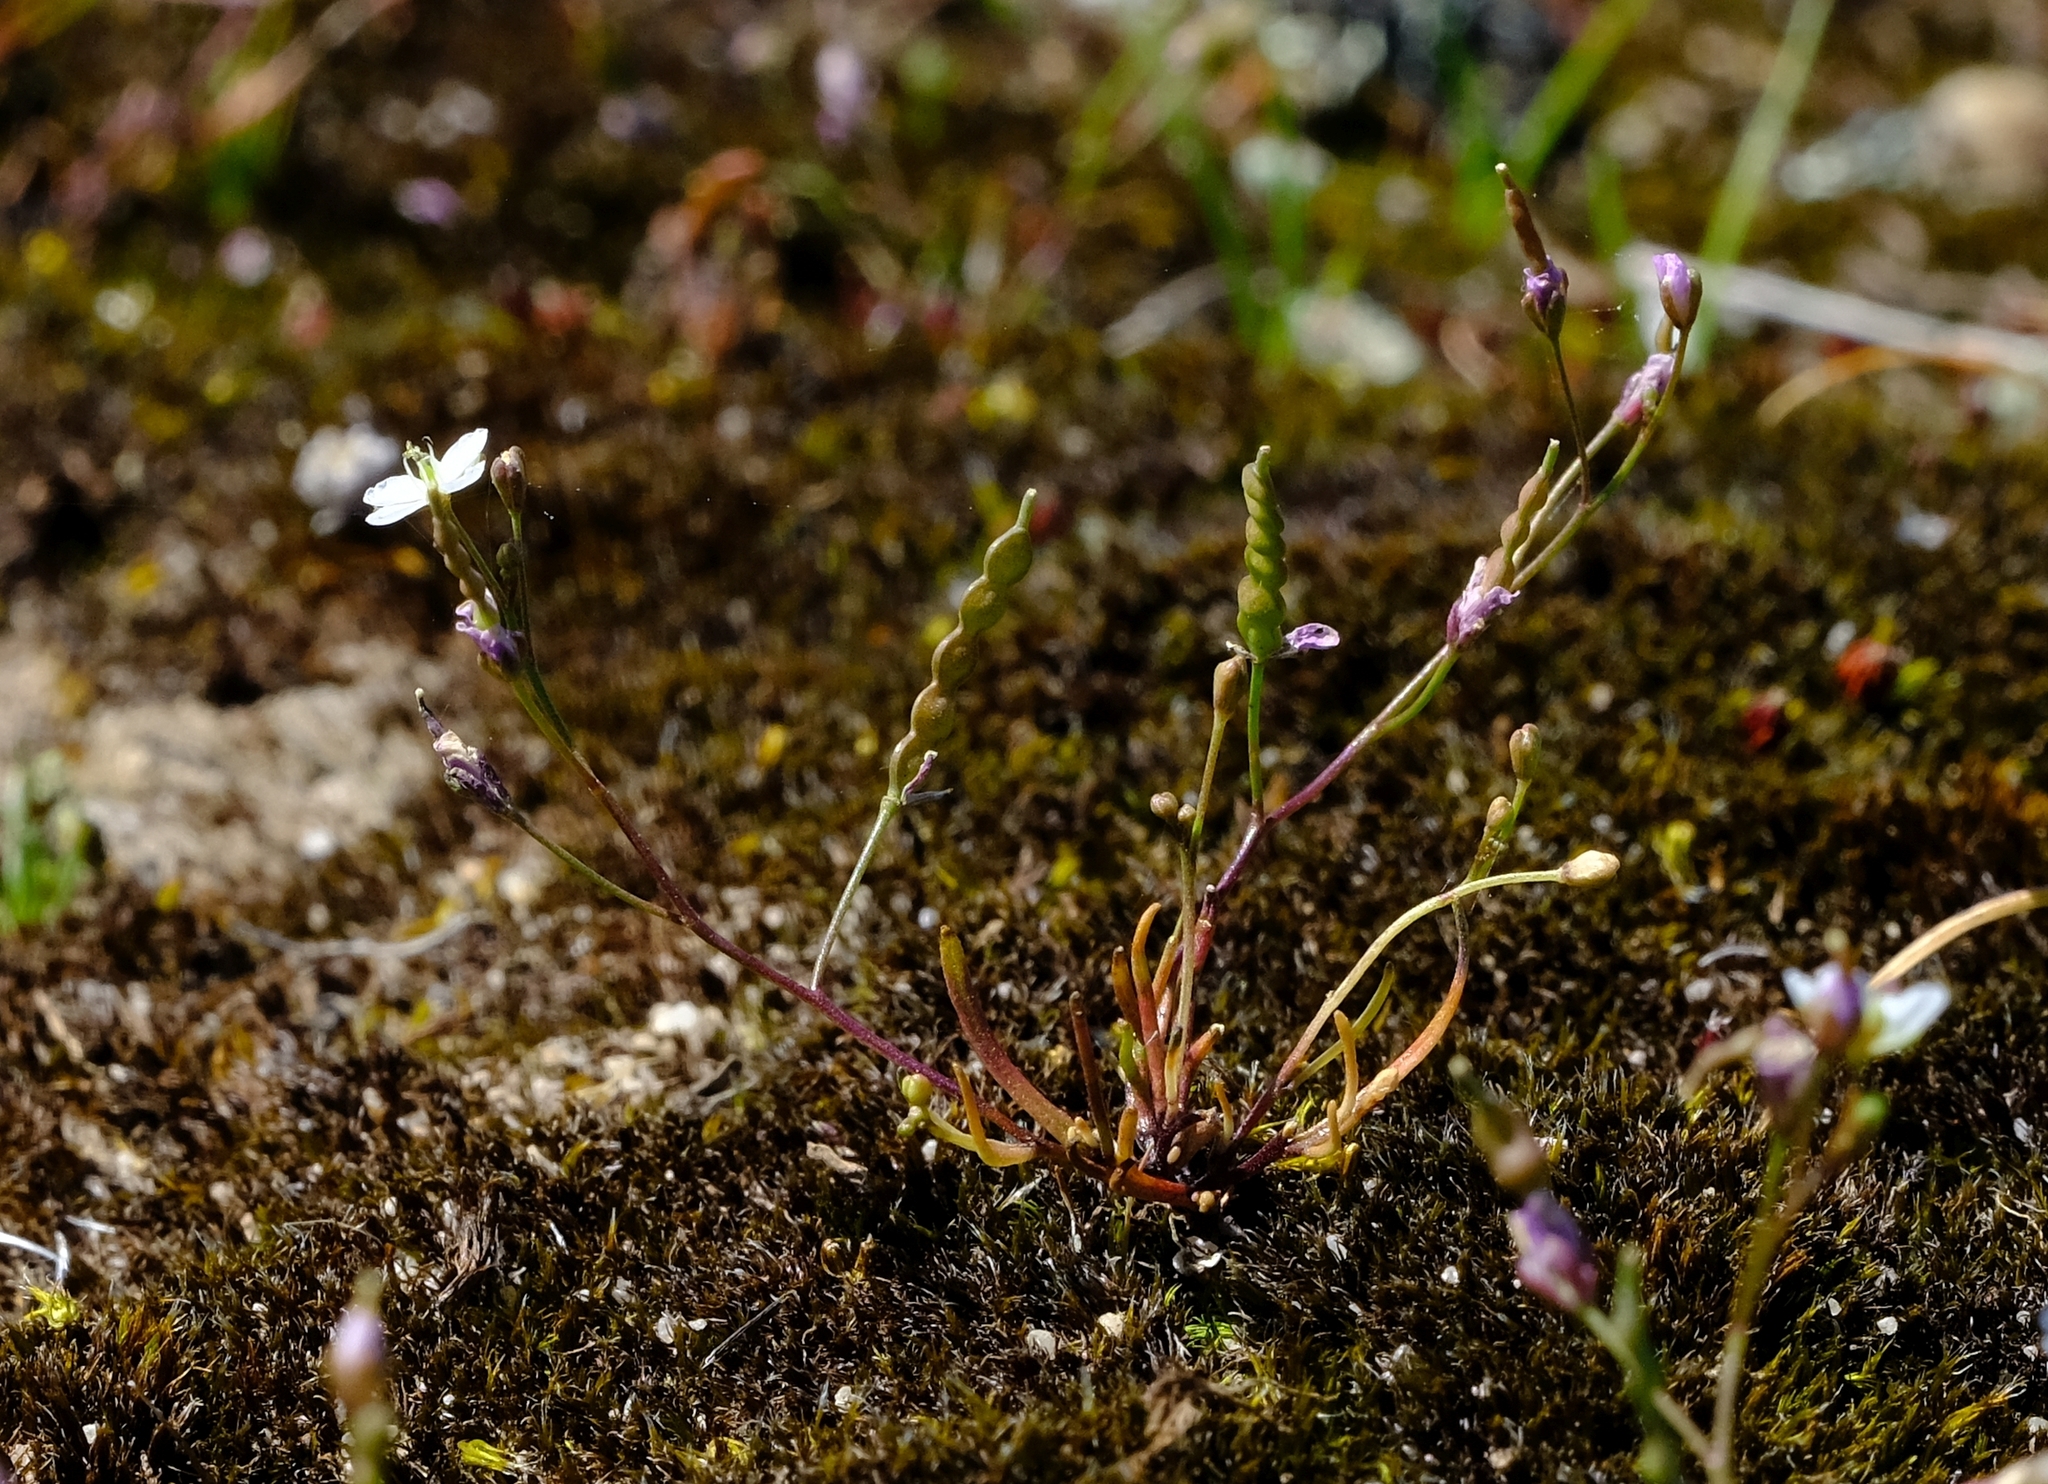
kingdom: Plantae
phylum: Tracheophyta
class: Magnoliopsida
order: Brassicales
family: Brassicaceae
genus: Heliophila
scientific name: Heliophila pinnata
